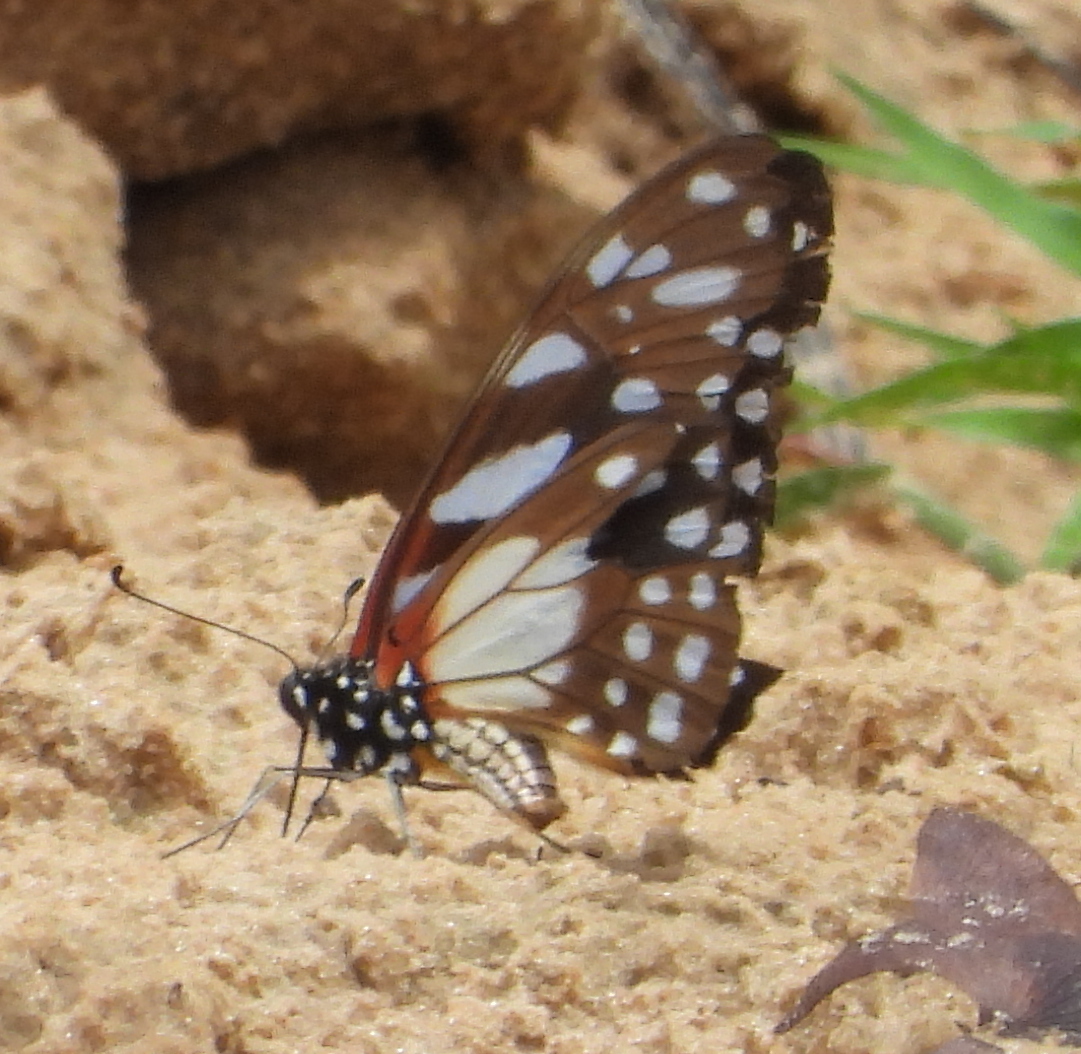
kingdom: Animalia
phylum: Arthropoda
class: Insecta
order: Lepidoptera
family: Papilionidae
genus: Graphium
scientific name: Graphium leonidas
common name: Common graphium
